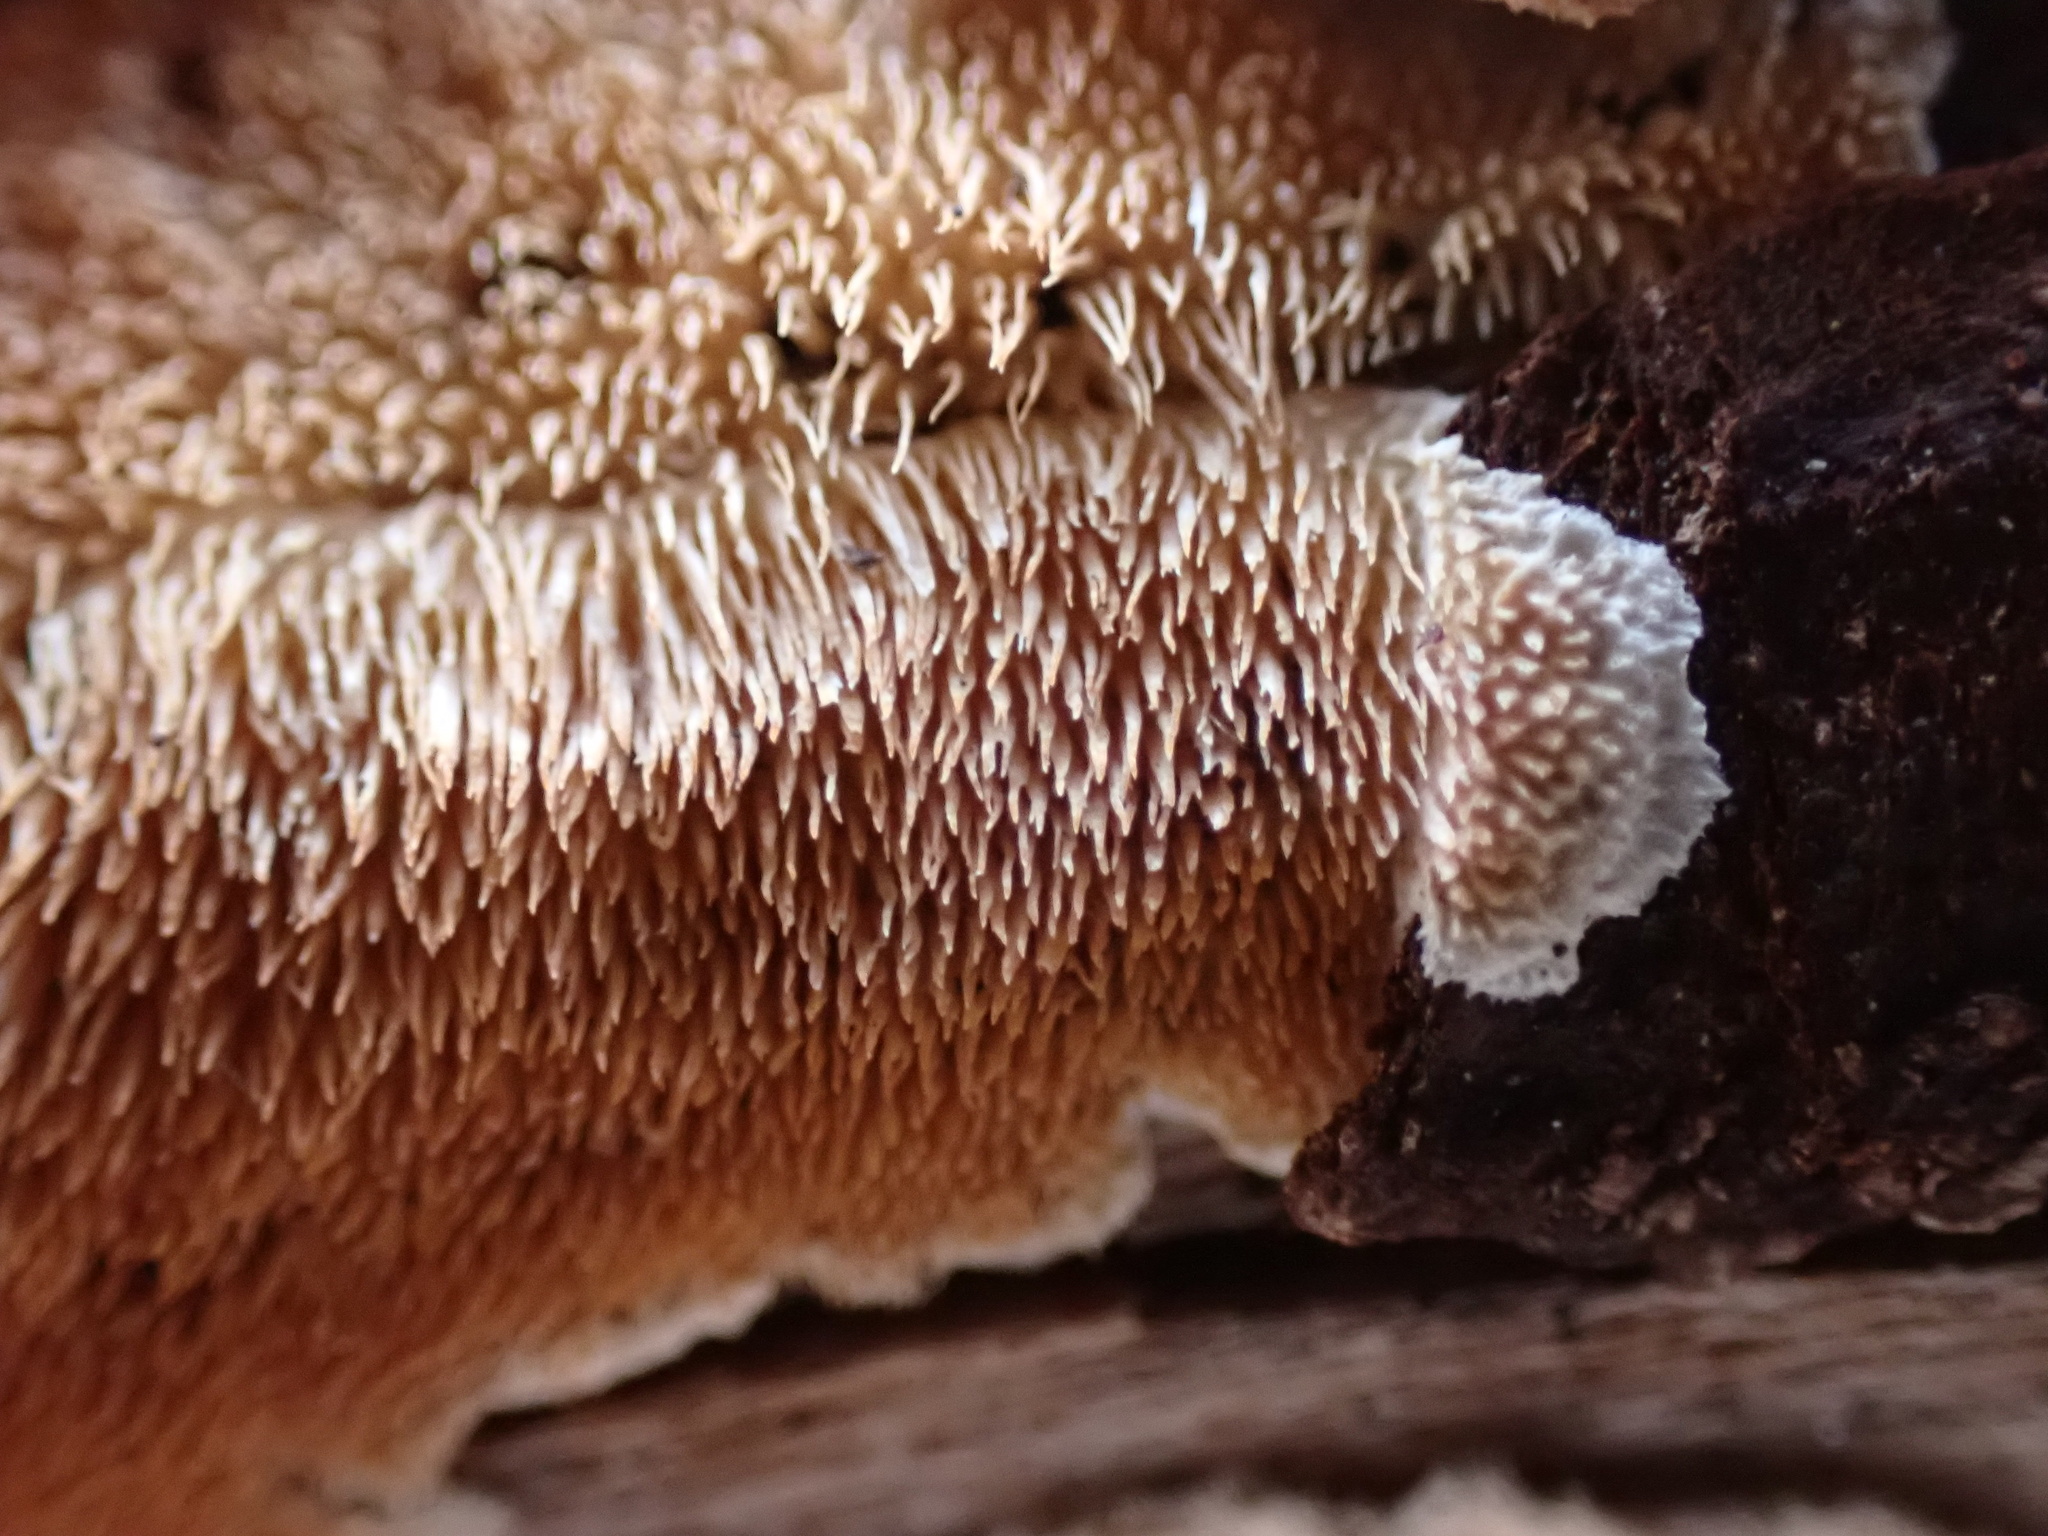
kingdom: Fungi
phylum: Basidiomycota
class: Agaricomycetes
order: Polyporales
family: Steccherinaceae
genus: Steccherinum
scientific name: Steccherinum ochraceum
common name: Ochre spreading tooth
